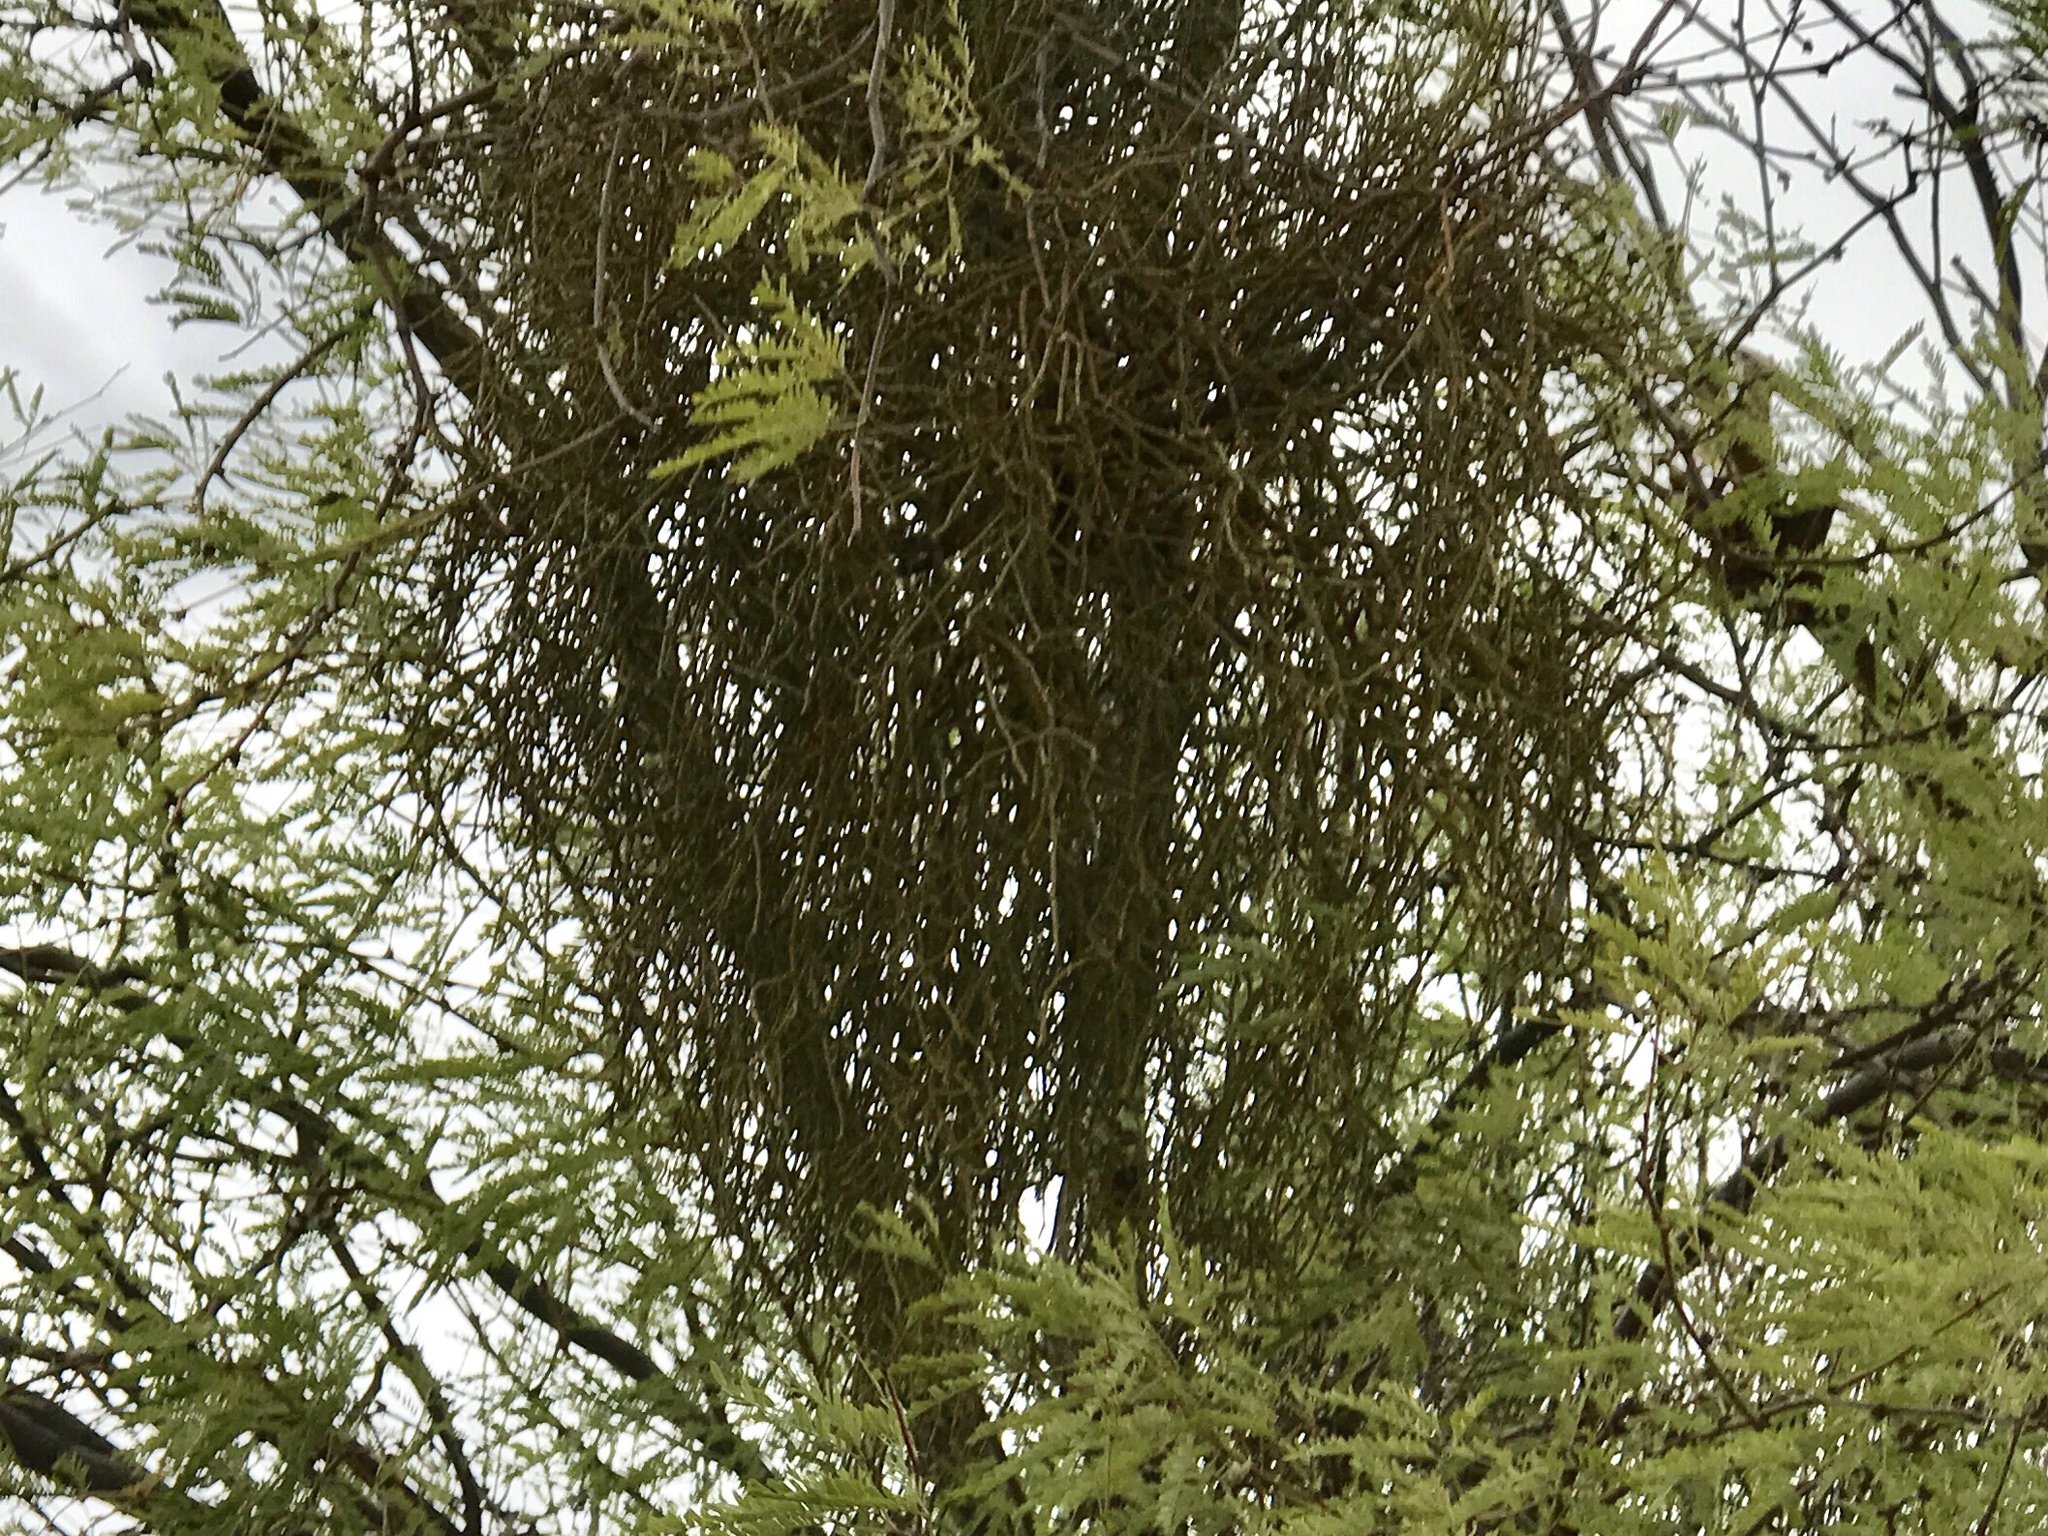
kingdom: Plantae
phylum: Tracheophyta
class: Magnoliopsida
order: Santalales
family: Viscaceae
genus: Phoradendron
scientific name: Phoradendron californicum
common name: Acacia mistletoe
